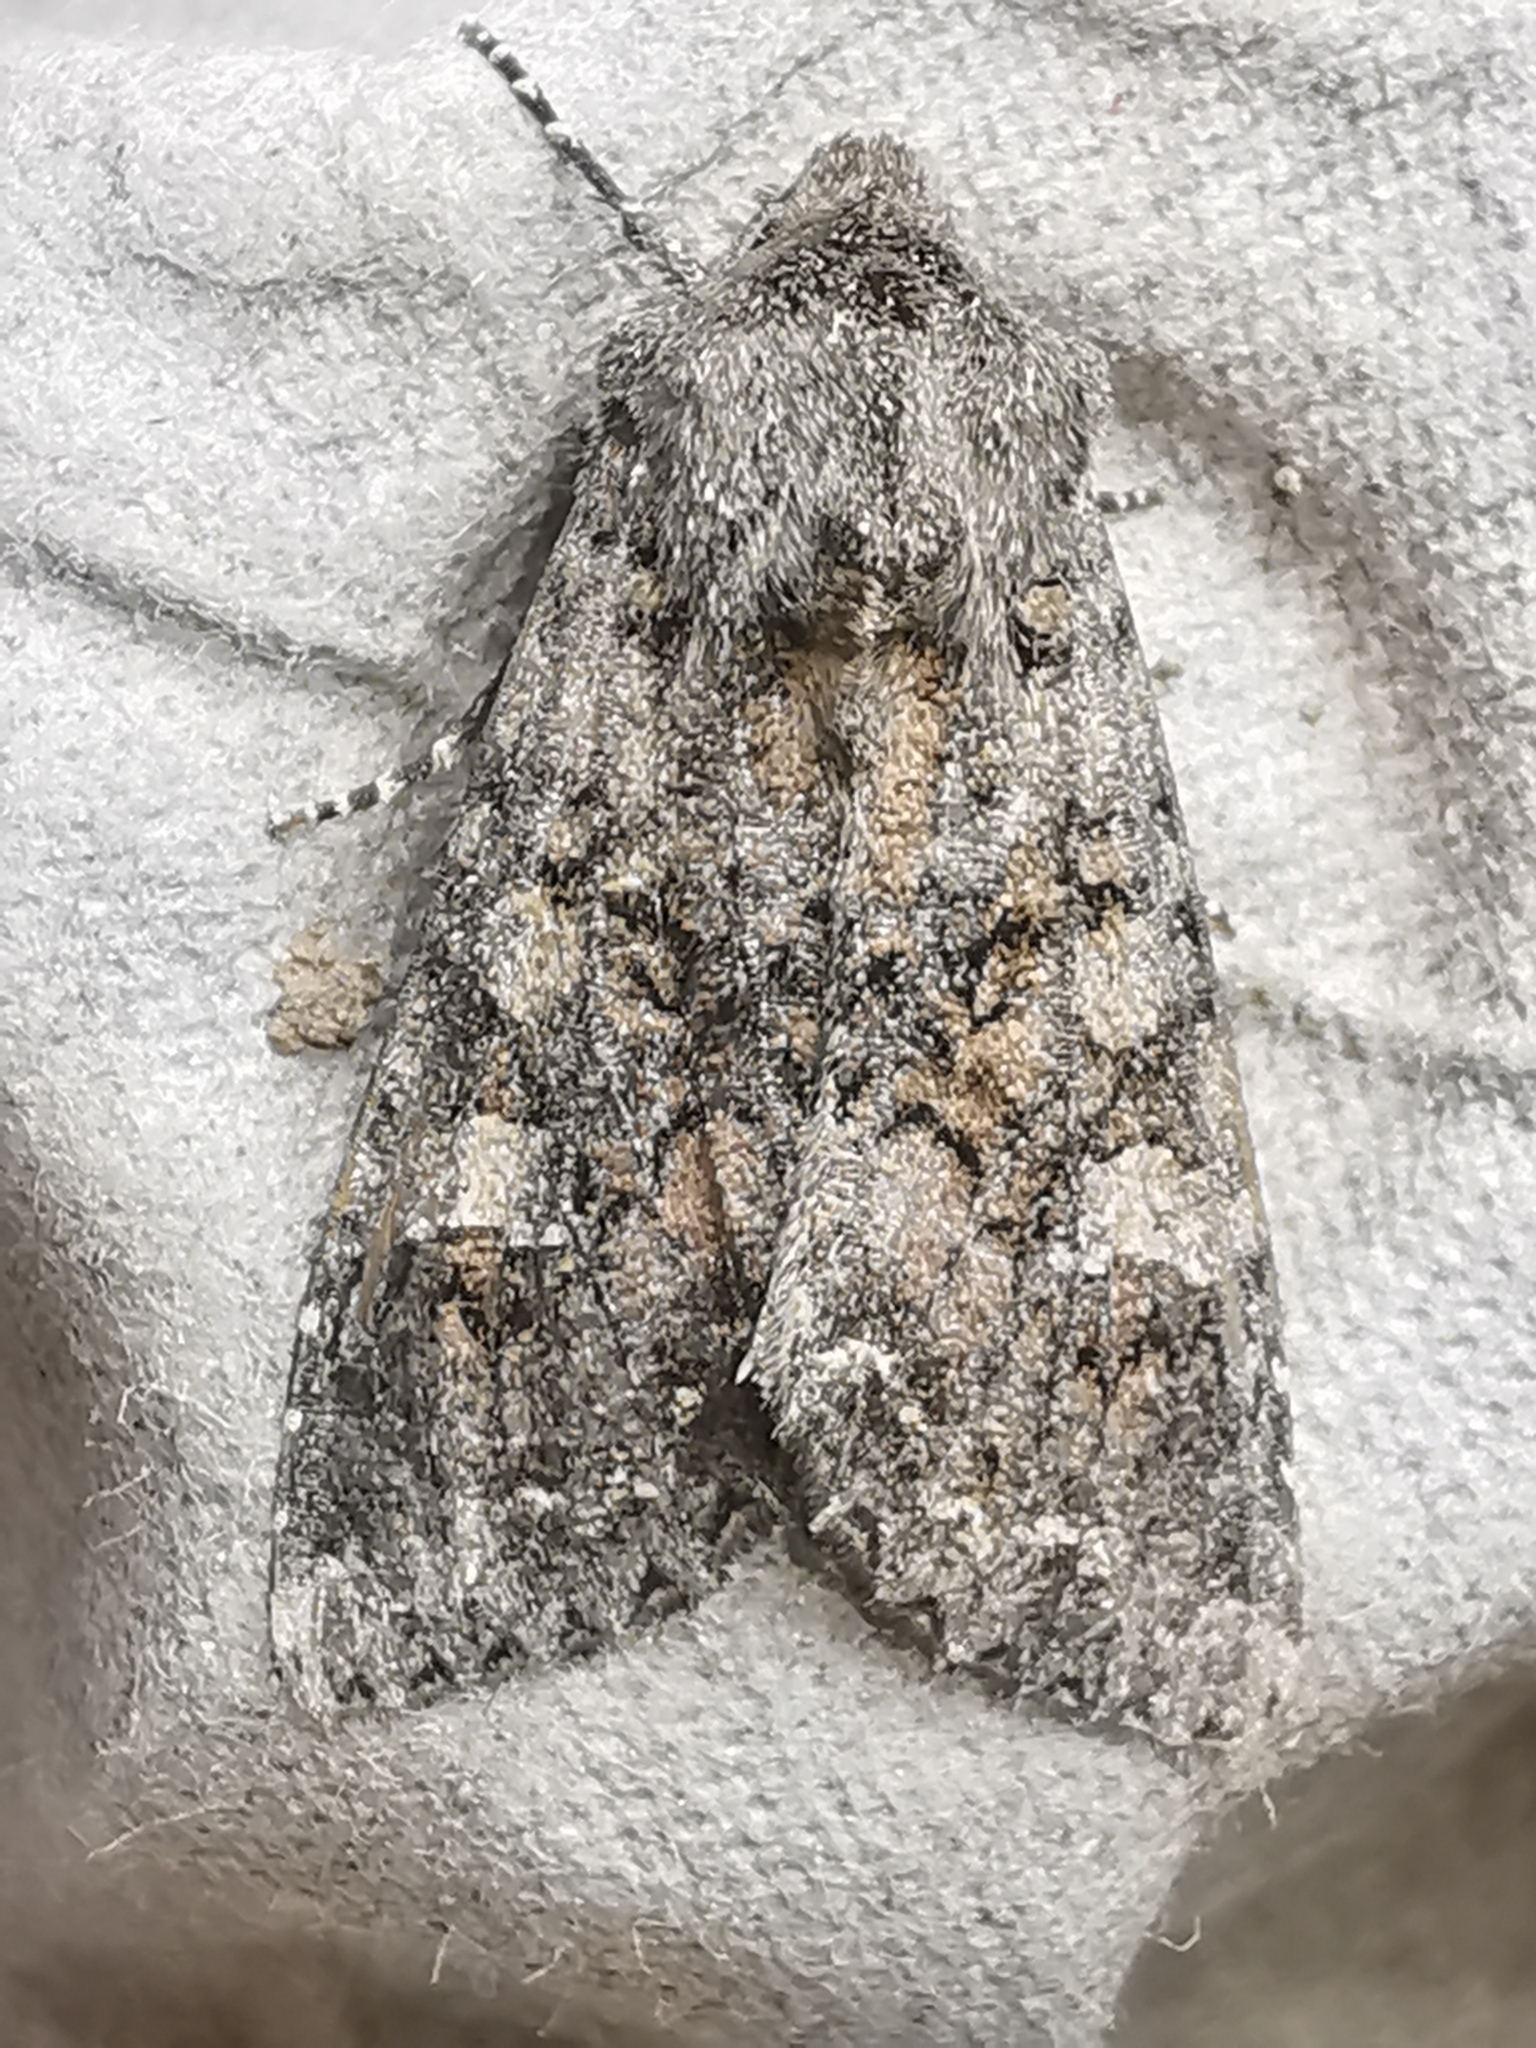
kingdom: Animalia
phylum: Arthropoda
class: Insecta
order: Lepidoptera
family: Noctuidae
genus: Mamestra
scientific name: Mamestra brassicae
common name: Cabbage moth
